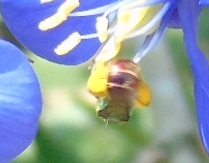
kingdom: Animalia
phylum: Arthropoda
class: Insecta
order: Hymenoptera
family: Halictidae
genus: Augochloropsis
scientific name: Augochloropsis
